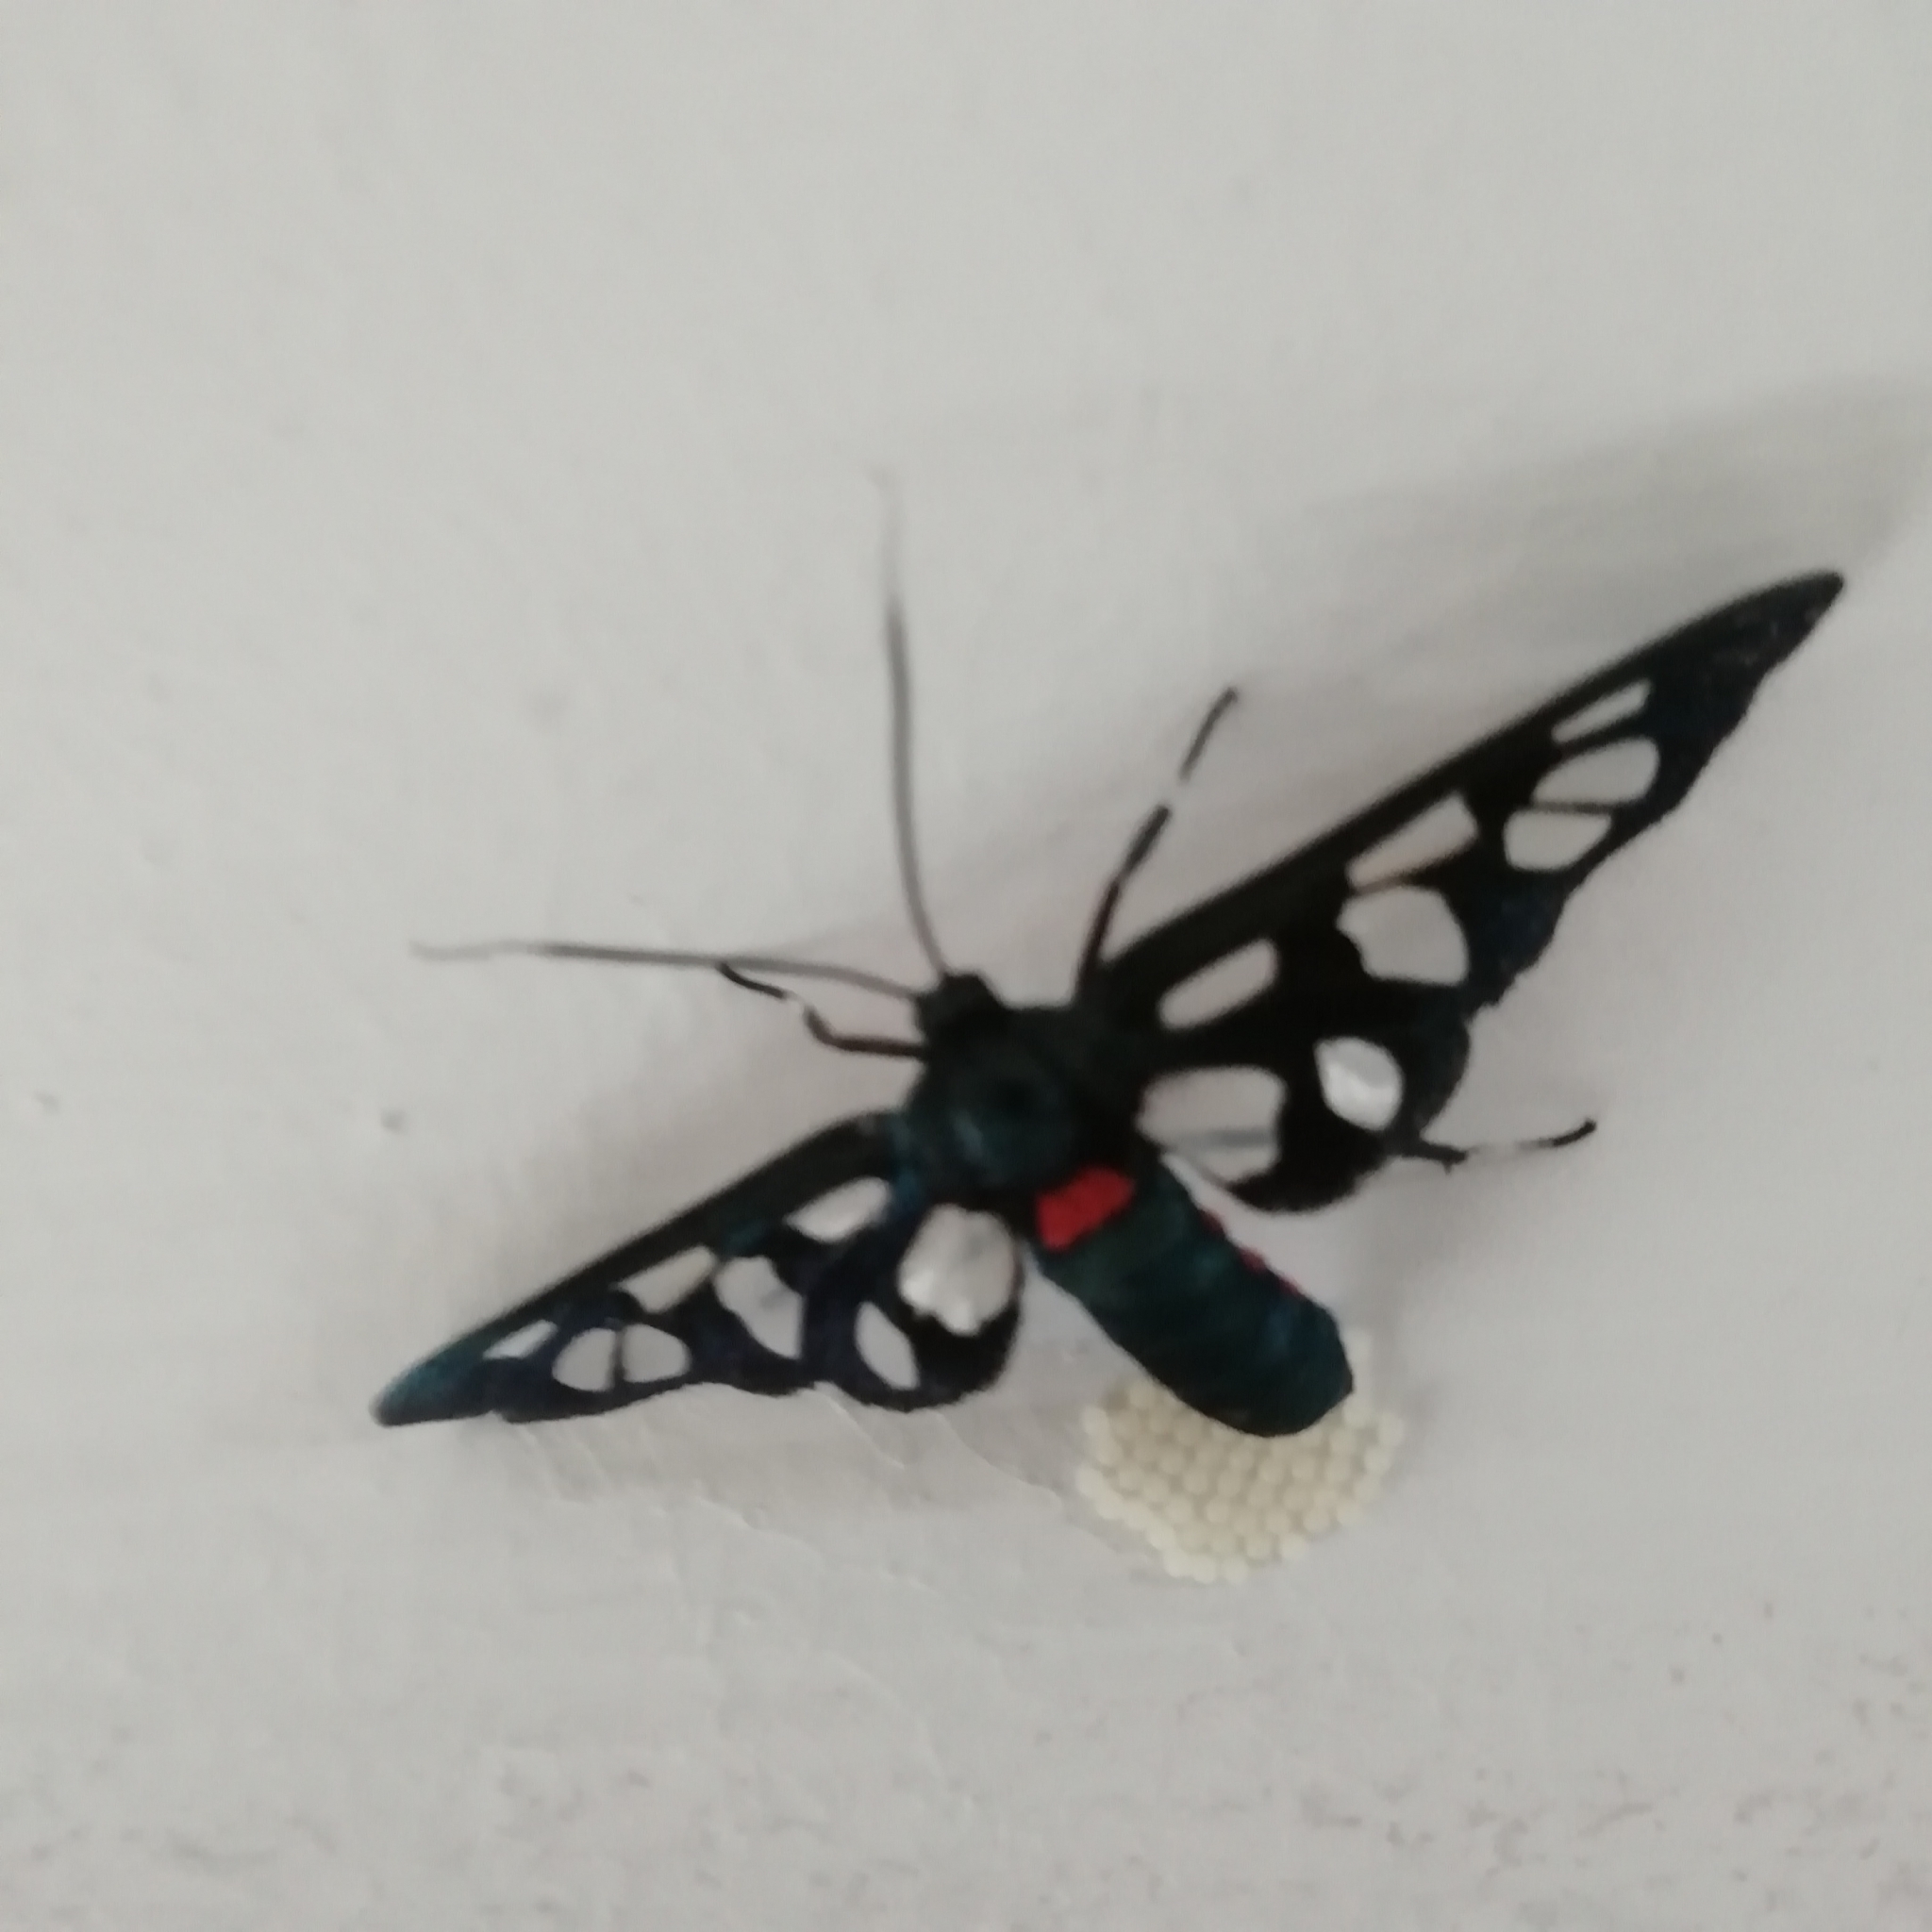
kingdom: Animalia
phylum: Arthropoda
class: Insecta
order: Lepidoptera
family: Erebidae
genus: Amata
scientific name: Amata kuhlweini
